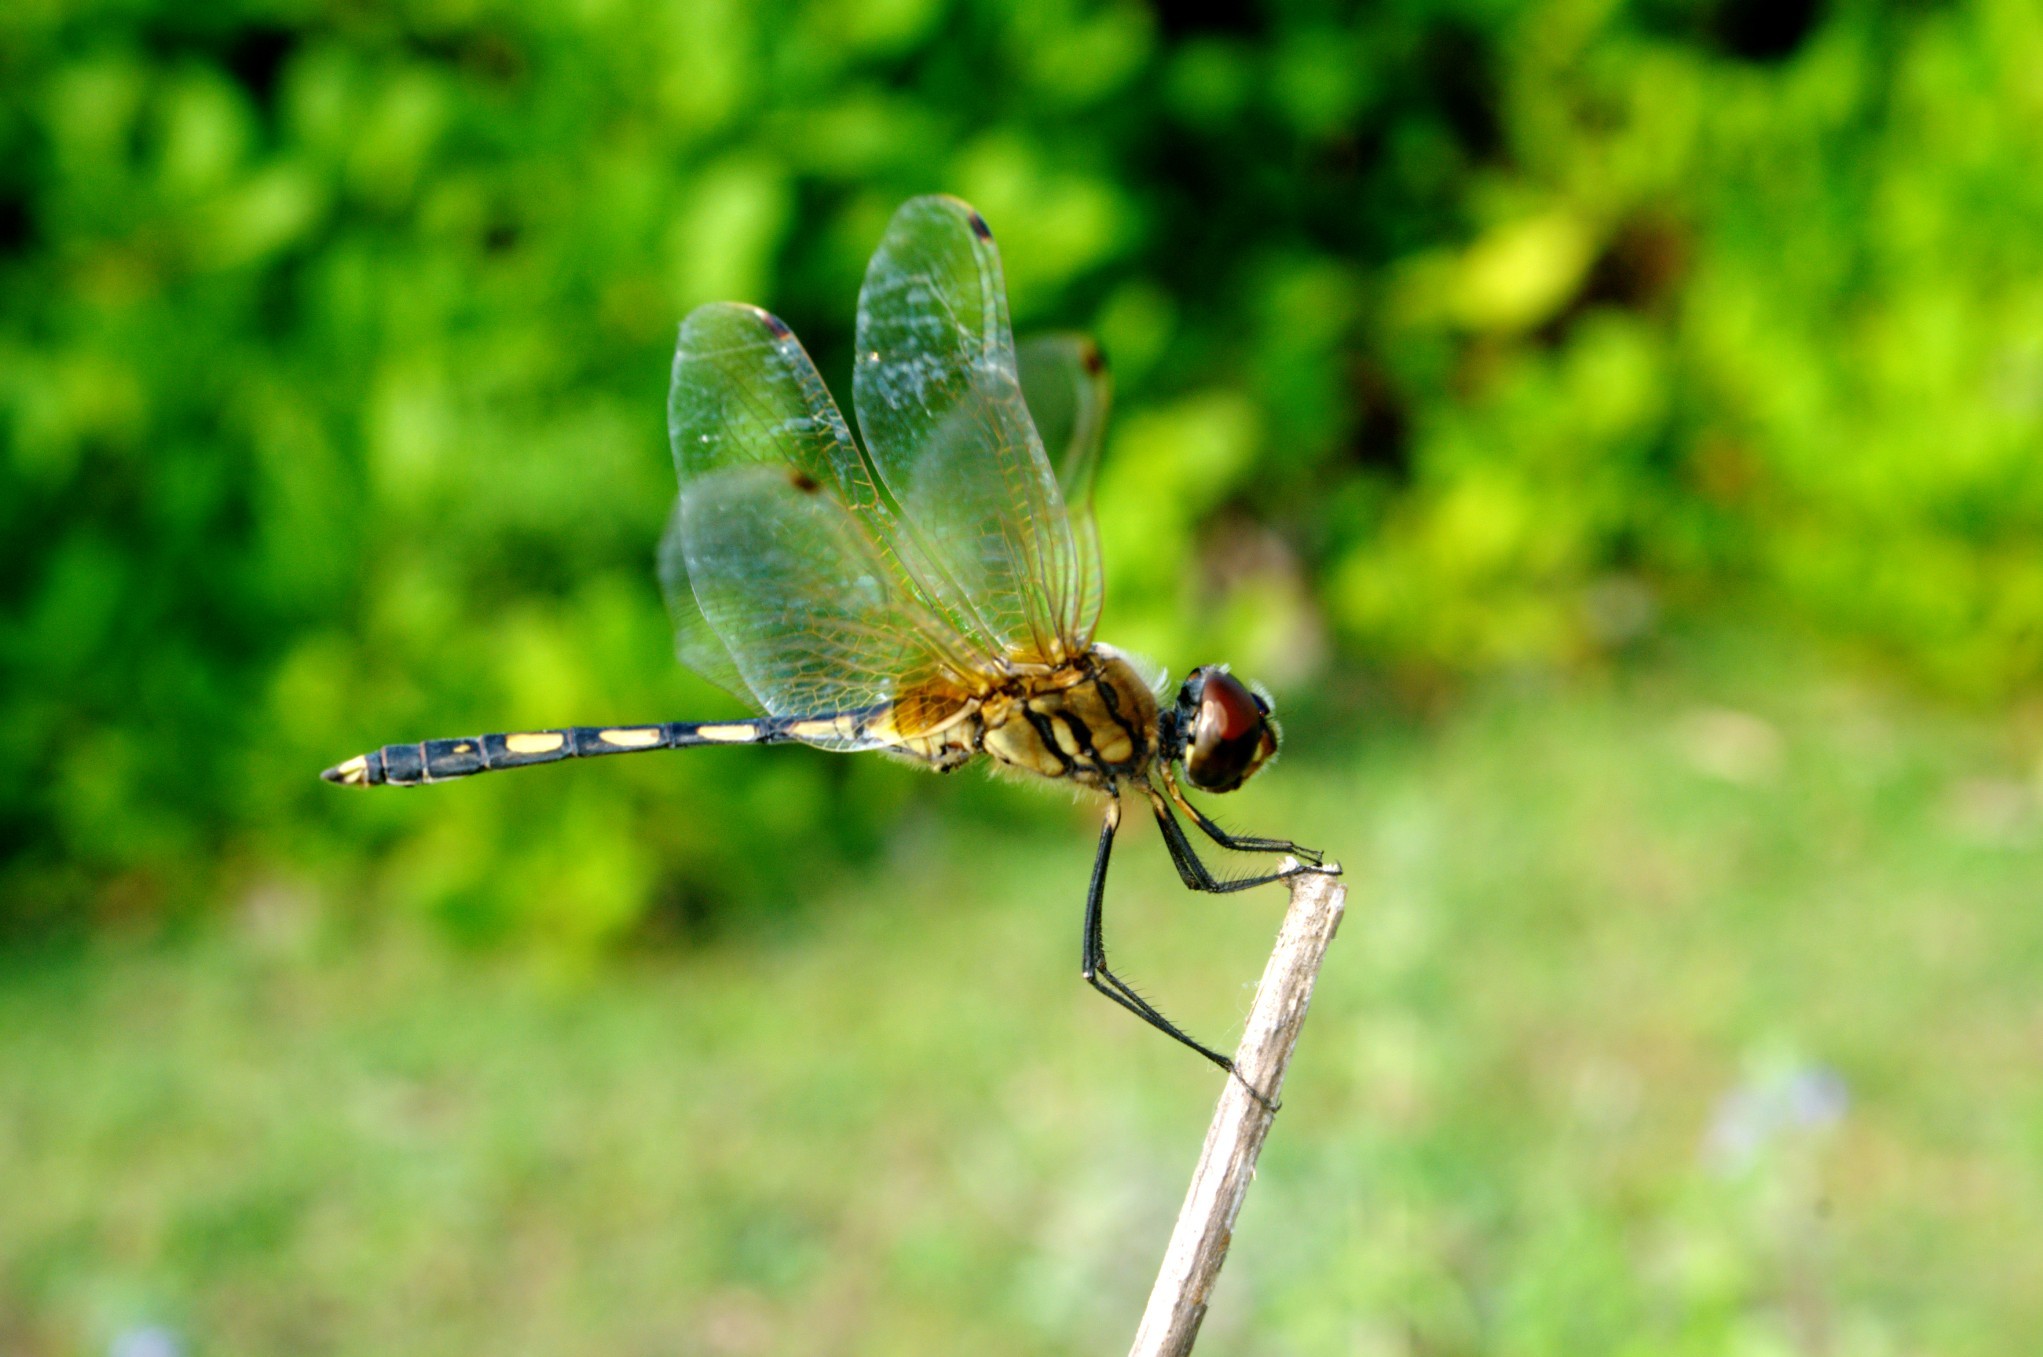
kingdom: Animalia
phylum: Arthropoda
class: Insecta
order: Odonata
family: Libellulidae
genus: Trithemis
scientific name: Trithemis pallidinervis
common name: Dancing dropwing
